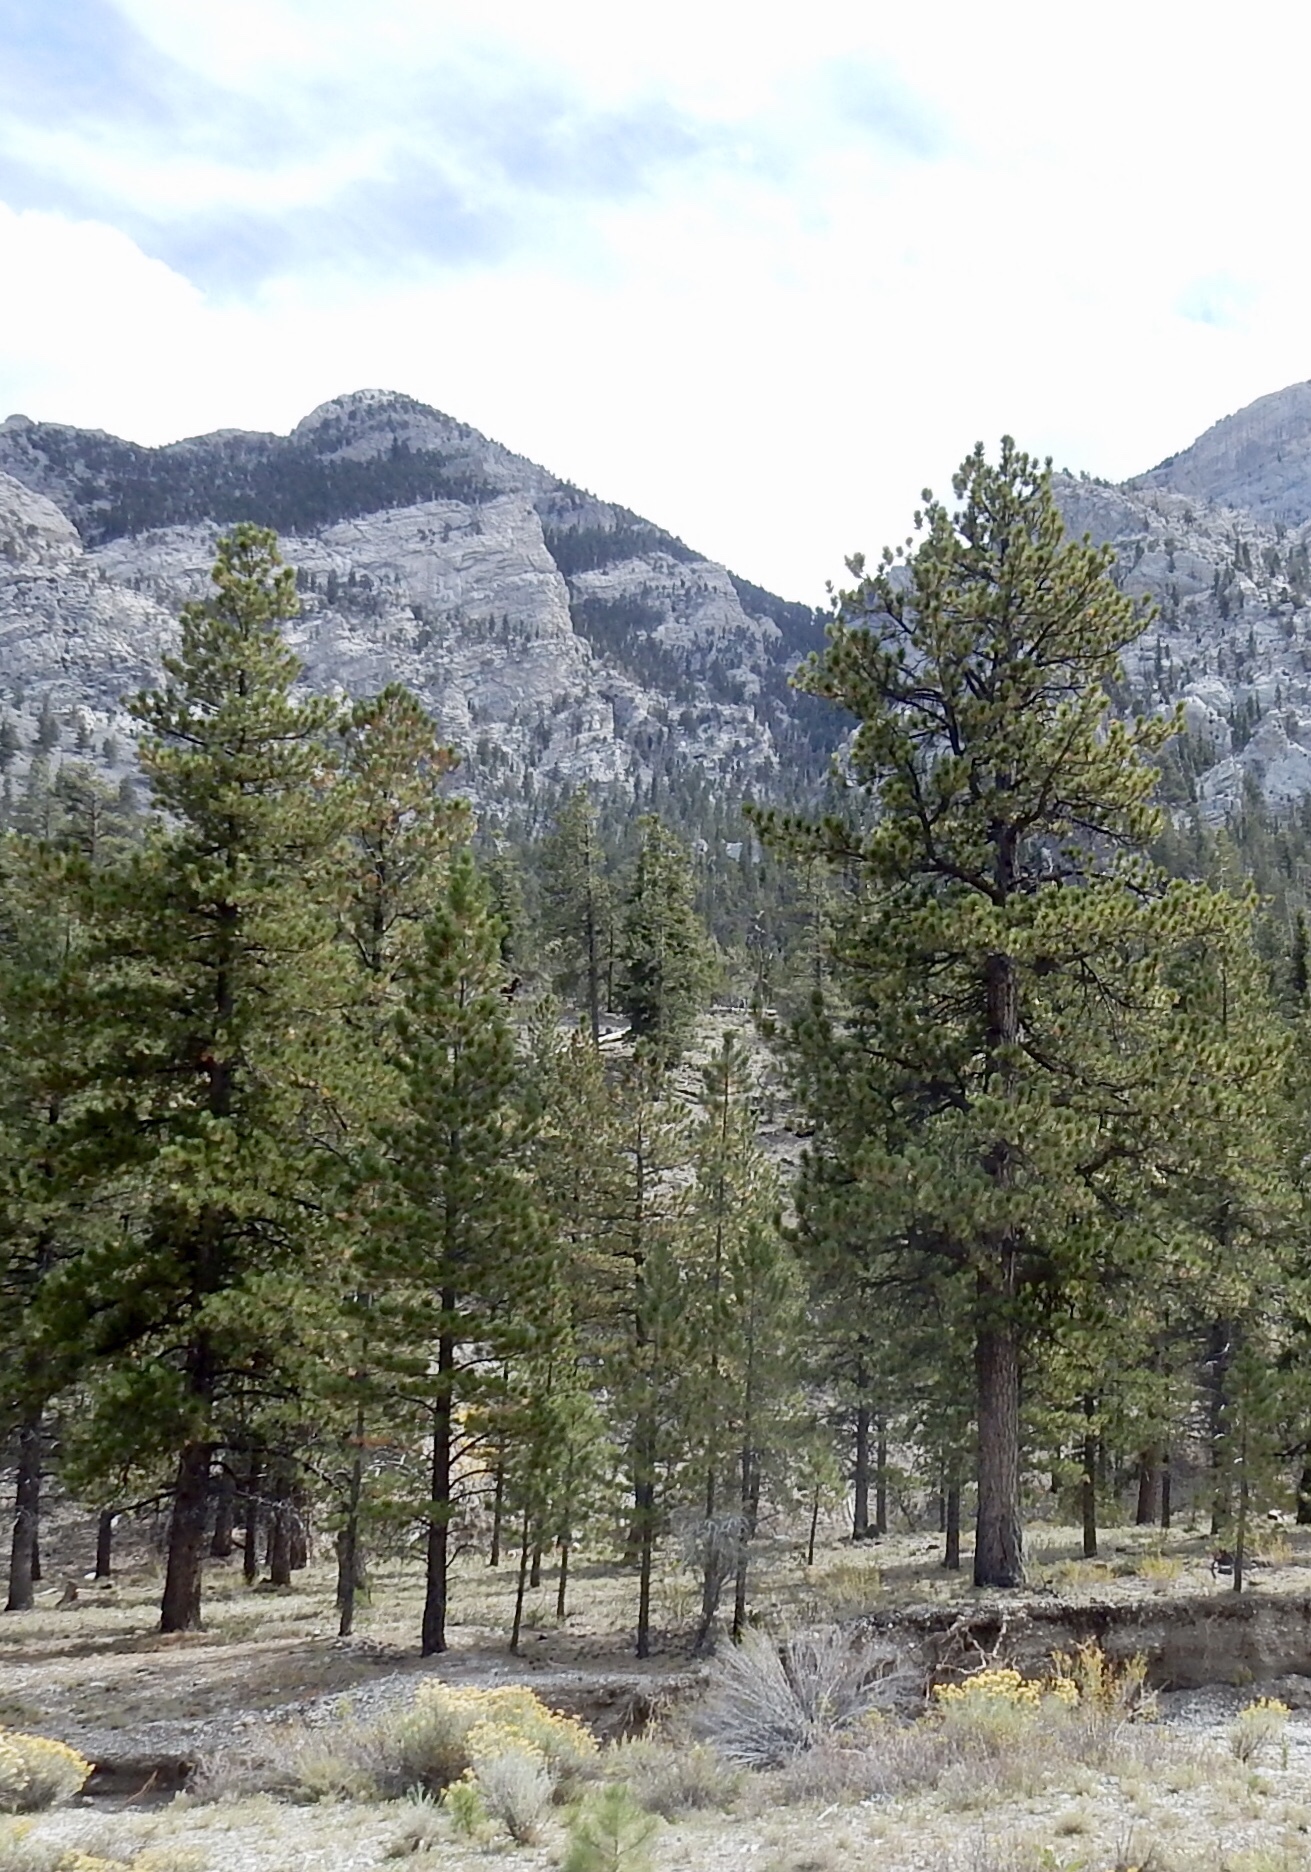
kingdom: Plantae
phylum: Tracheophyta
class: Pinopsida
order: Pinales
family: Pinaceae
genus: Pinus
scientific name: Pinus ponderosa
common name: Western yellow-pine
